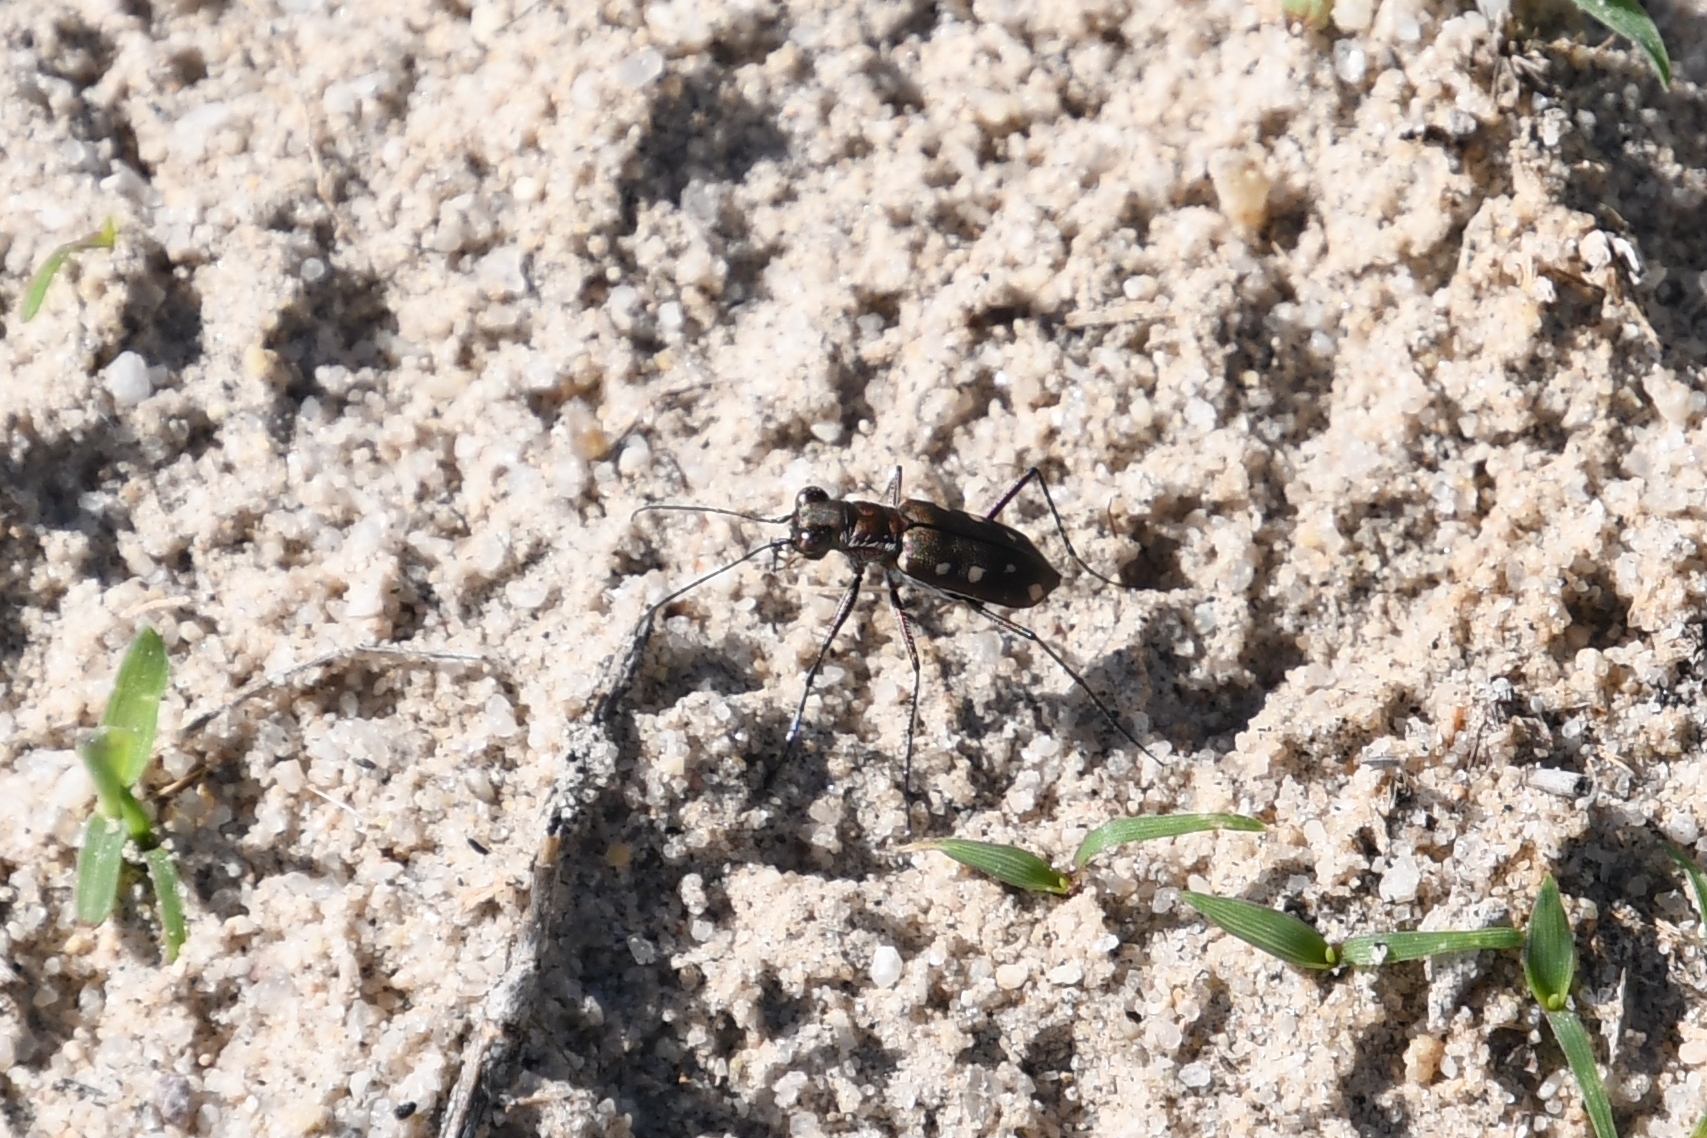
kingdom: Animalia
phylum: Arthropoda
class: Insecta
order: Coleoptera
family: Carabidae
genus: Cicindela
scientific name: Cicindela ocellata
